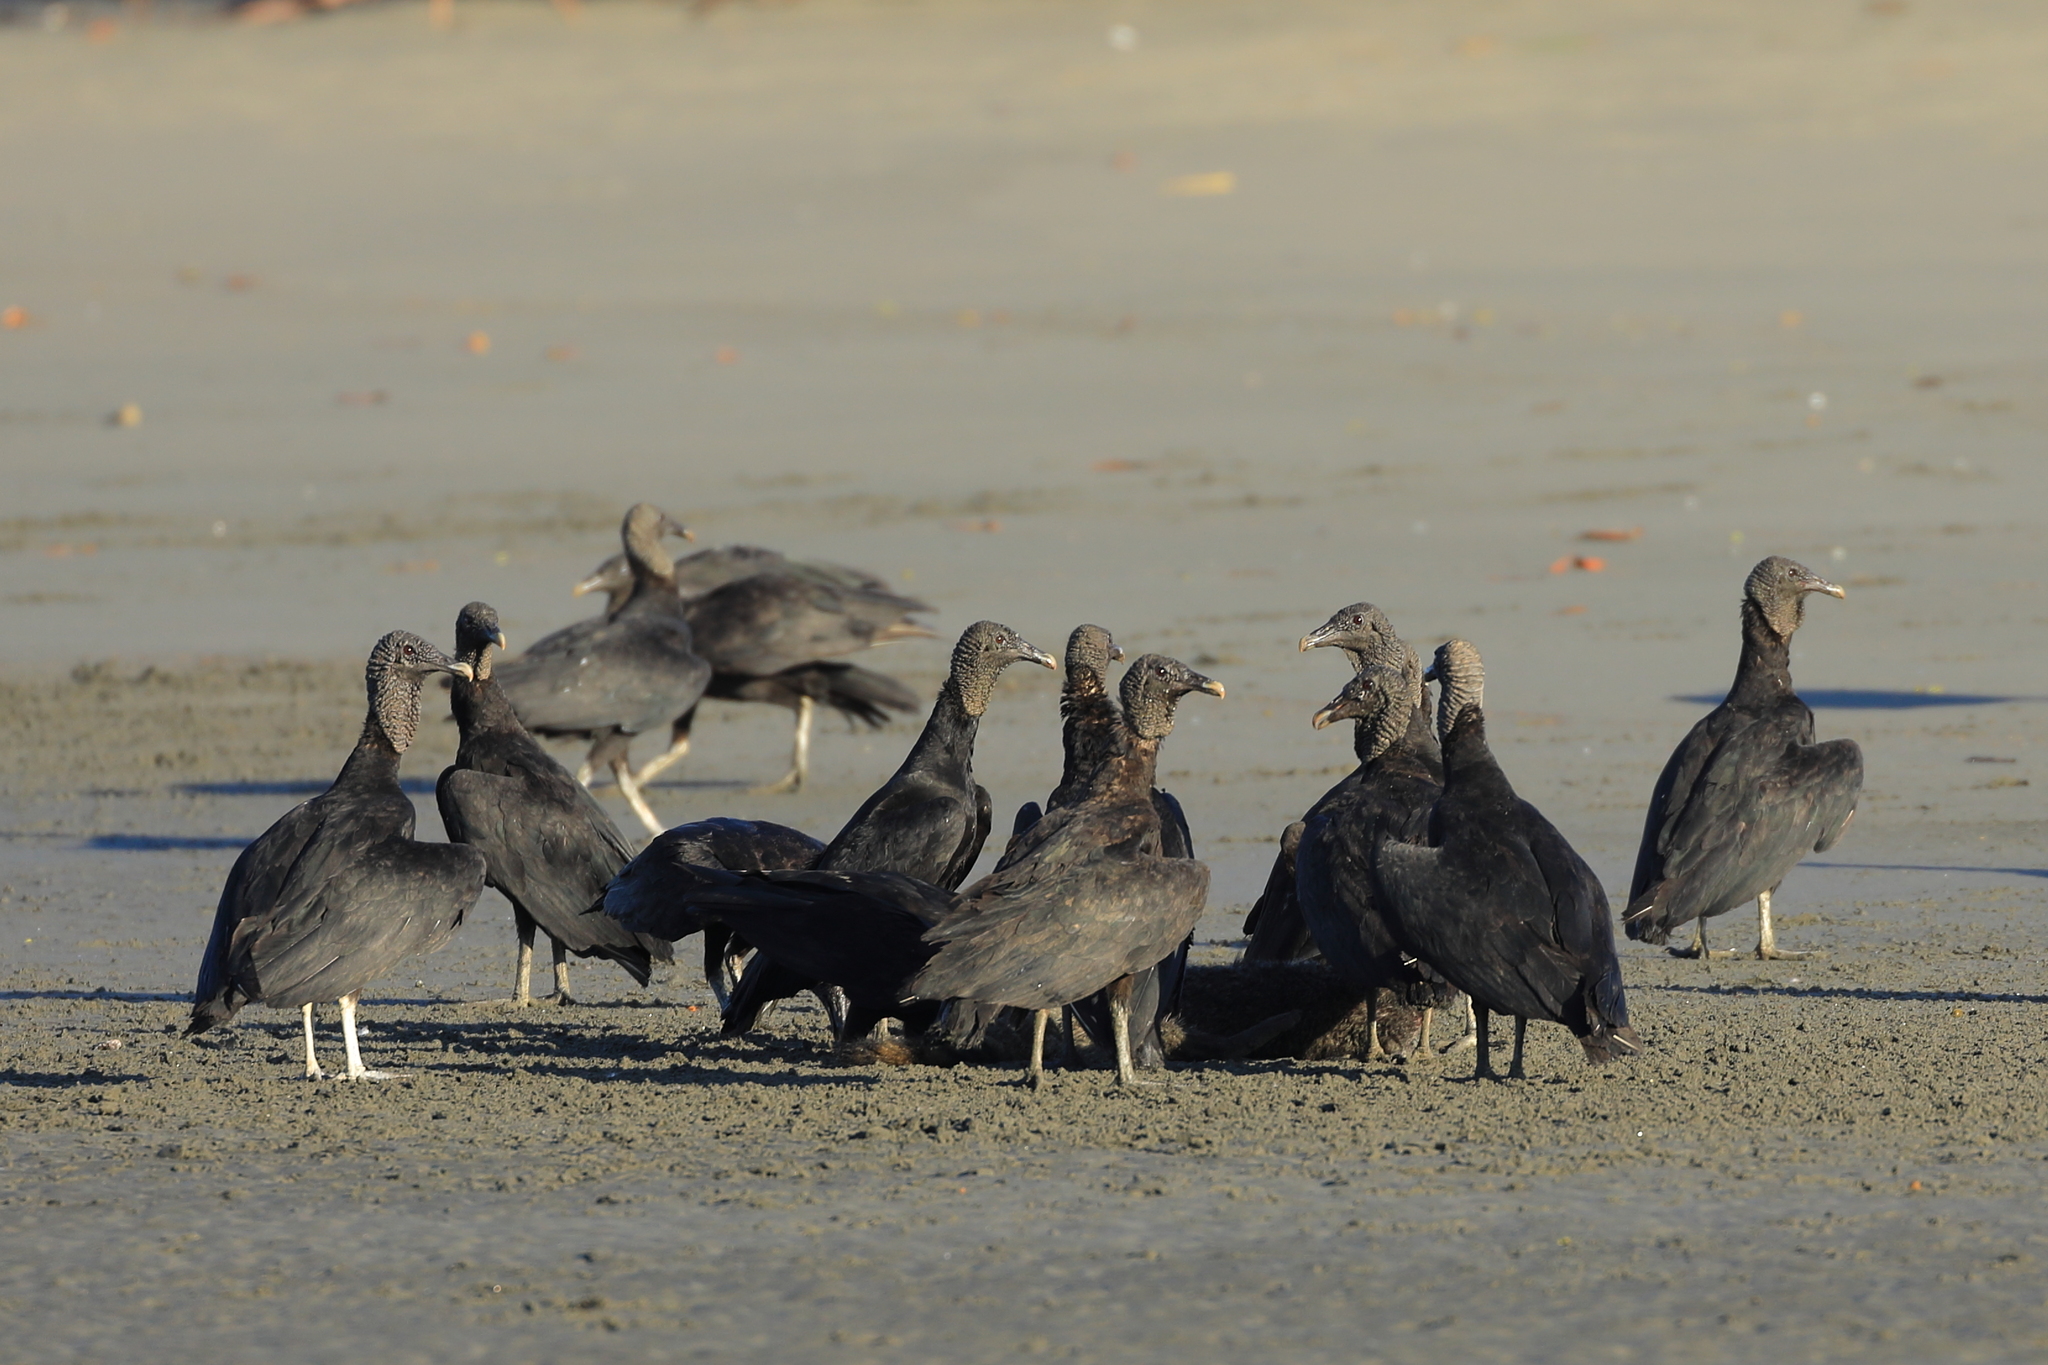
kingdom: Animalia
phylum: Chordata
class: Aves
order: Accipitriformes
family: Cathartidae
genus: Coragyps
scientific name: Coragyps atratus
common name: Black vulture
